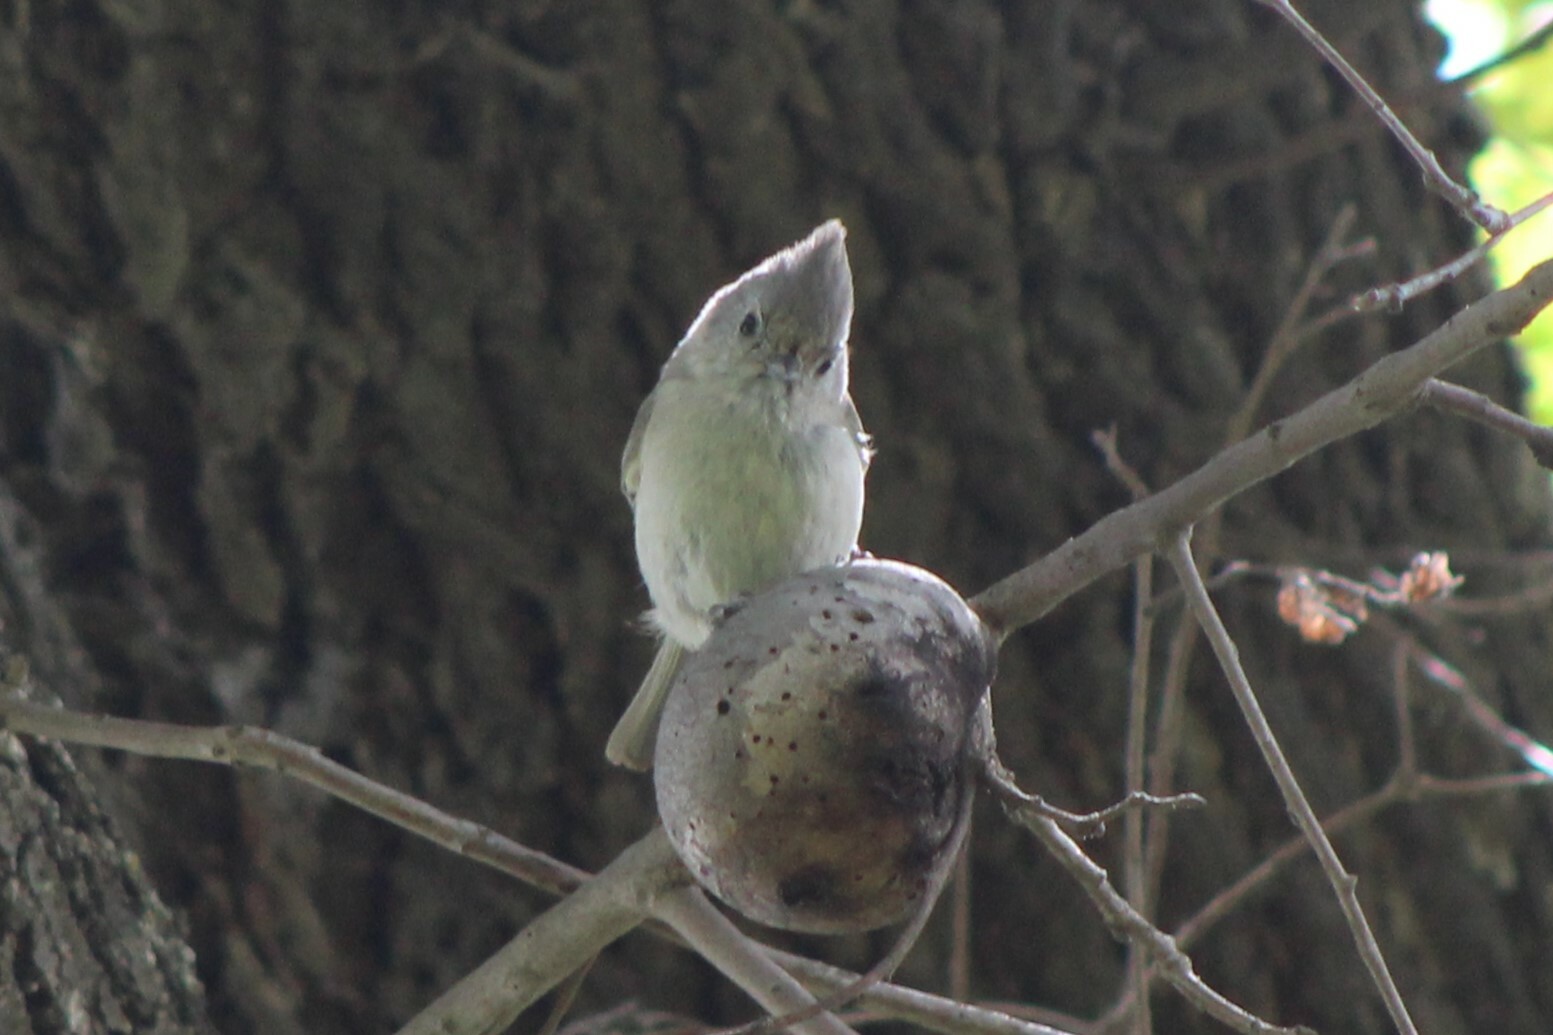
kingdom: Animalia
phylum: Chordata
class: Aves
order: Passeriformes
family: Paridae
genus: Baeolophus
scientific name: Baeolophus inornatus
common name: Oak titmouse
